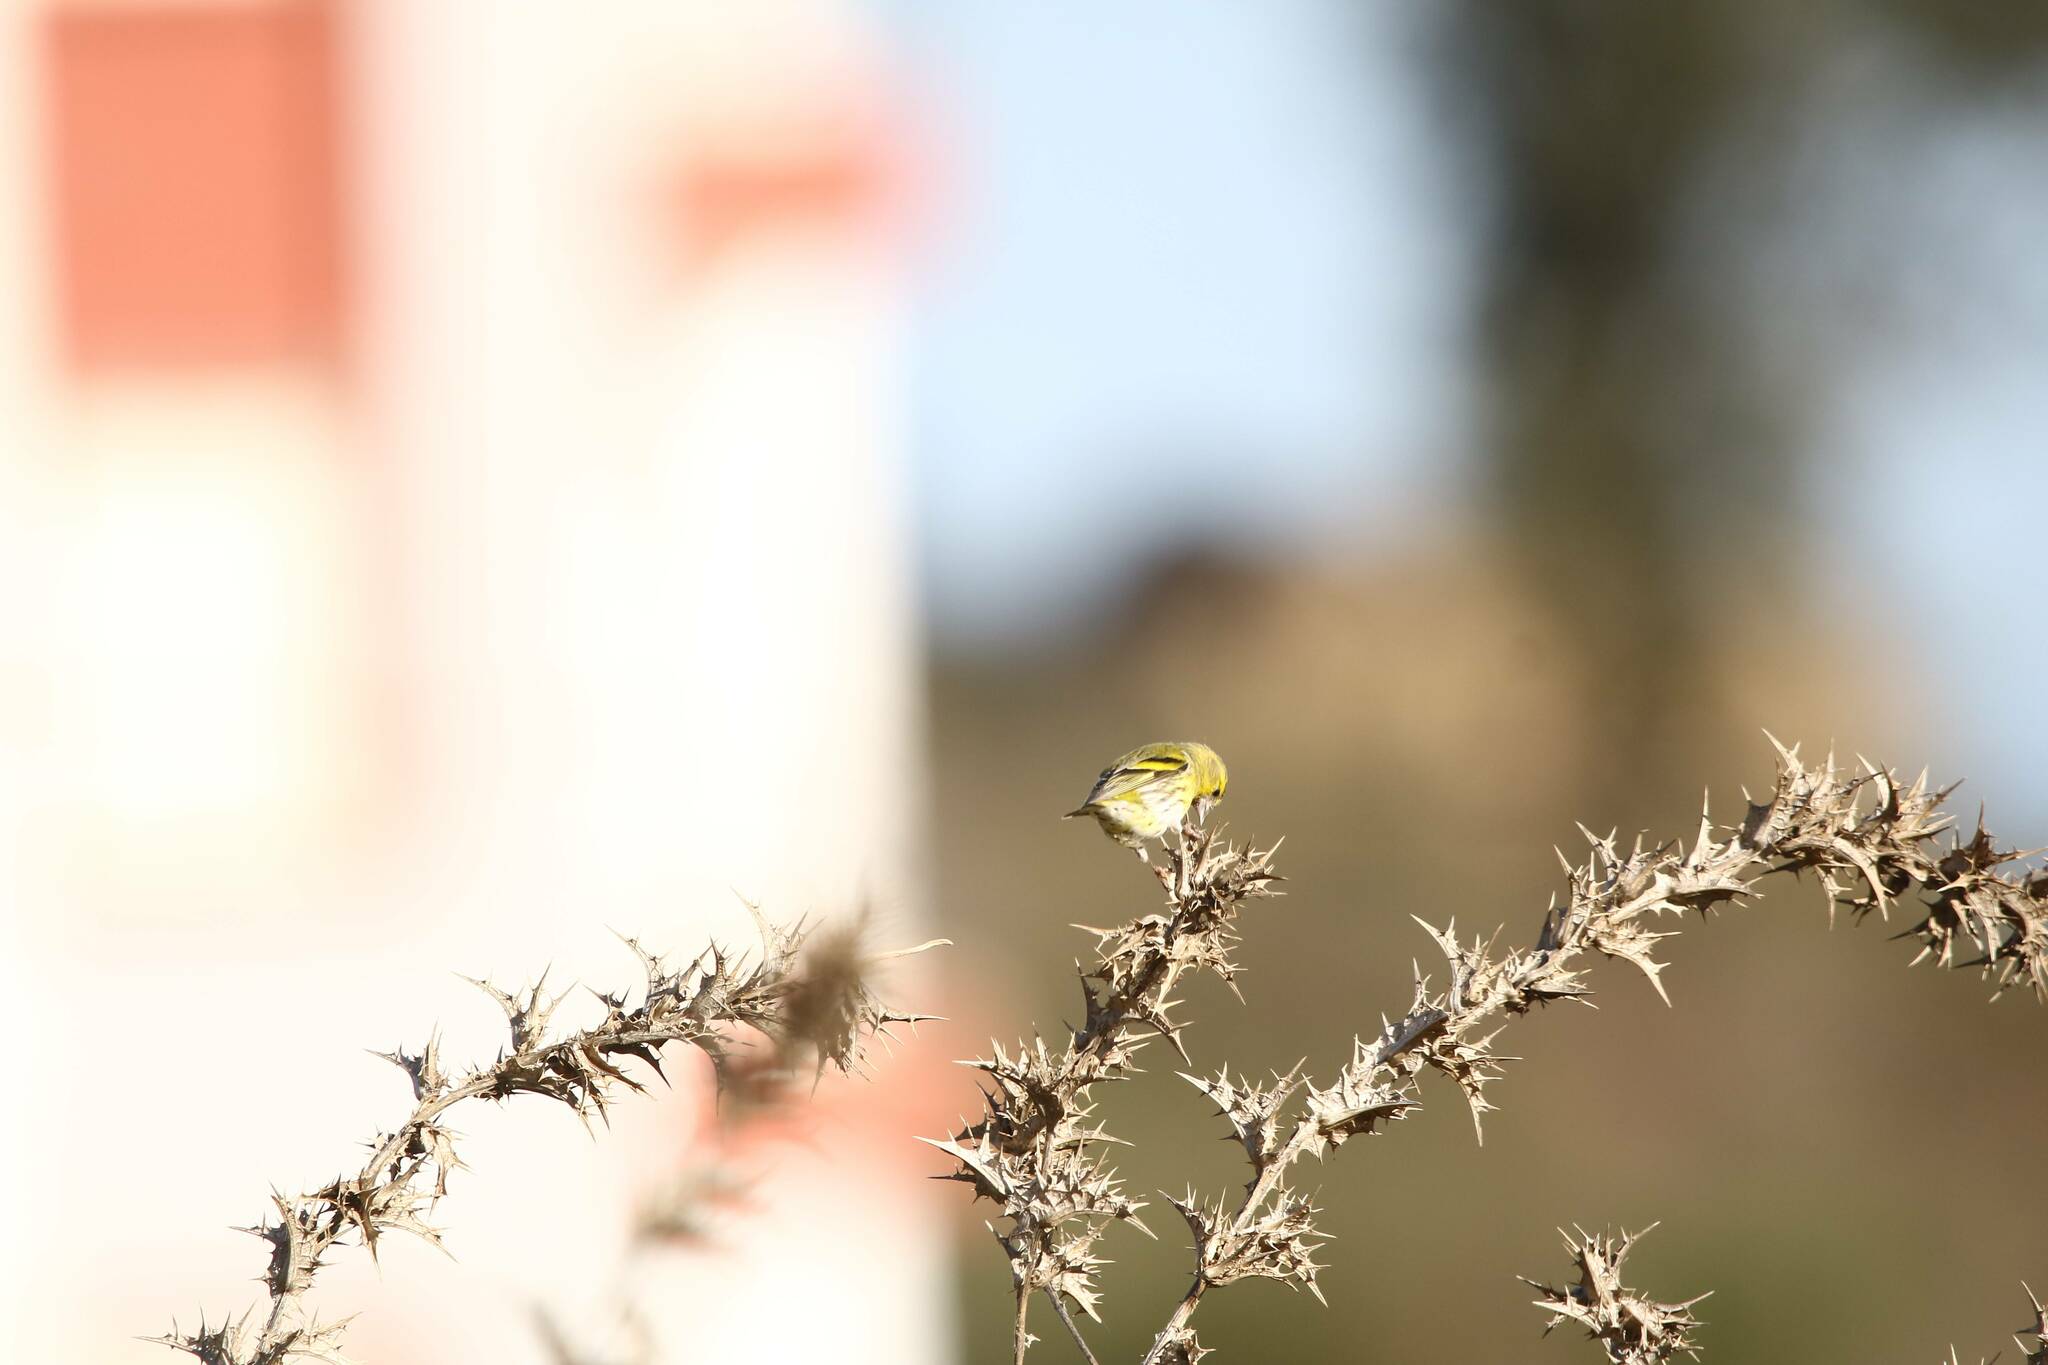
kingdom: Animalia
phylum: Chordata
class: Aves
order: Passeriformes
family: Fringillidae
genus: Spinus
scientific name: Spinus spinus
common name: Eurasian siskin
